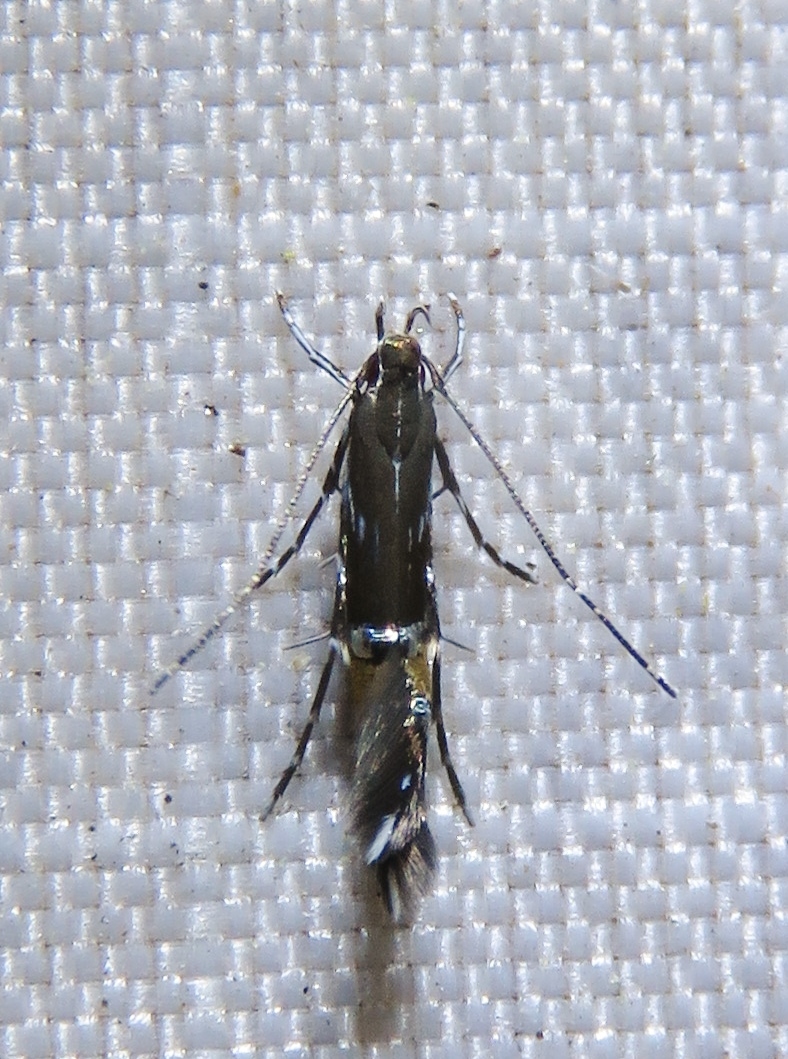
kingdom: Animalia
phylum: Arthropoda
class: Insecta
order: Lepidoptera
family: Cosmopterigidae
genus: Cosmopterix
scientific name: Cosmopterix pulchrimella
